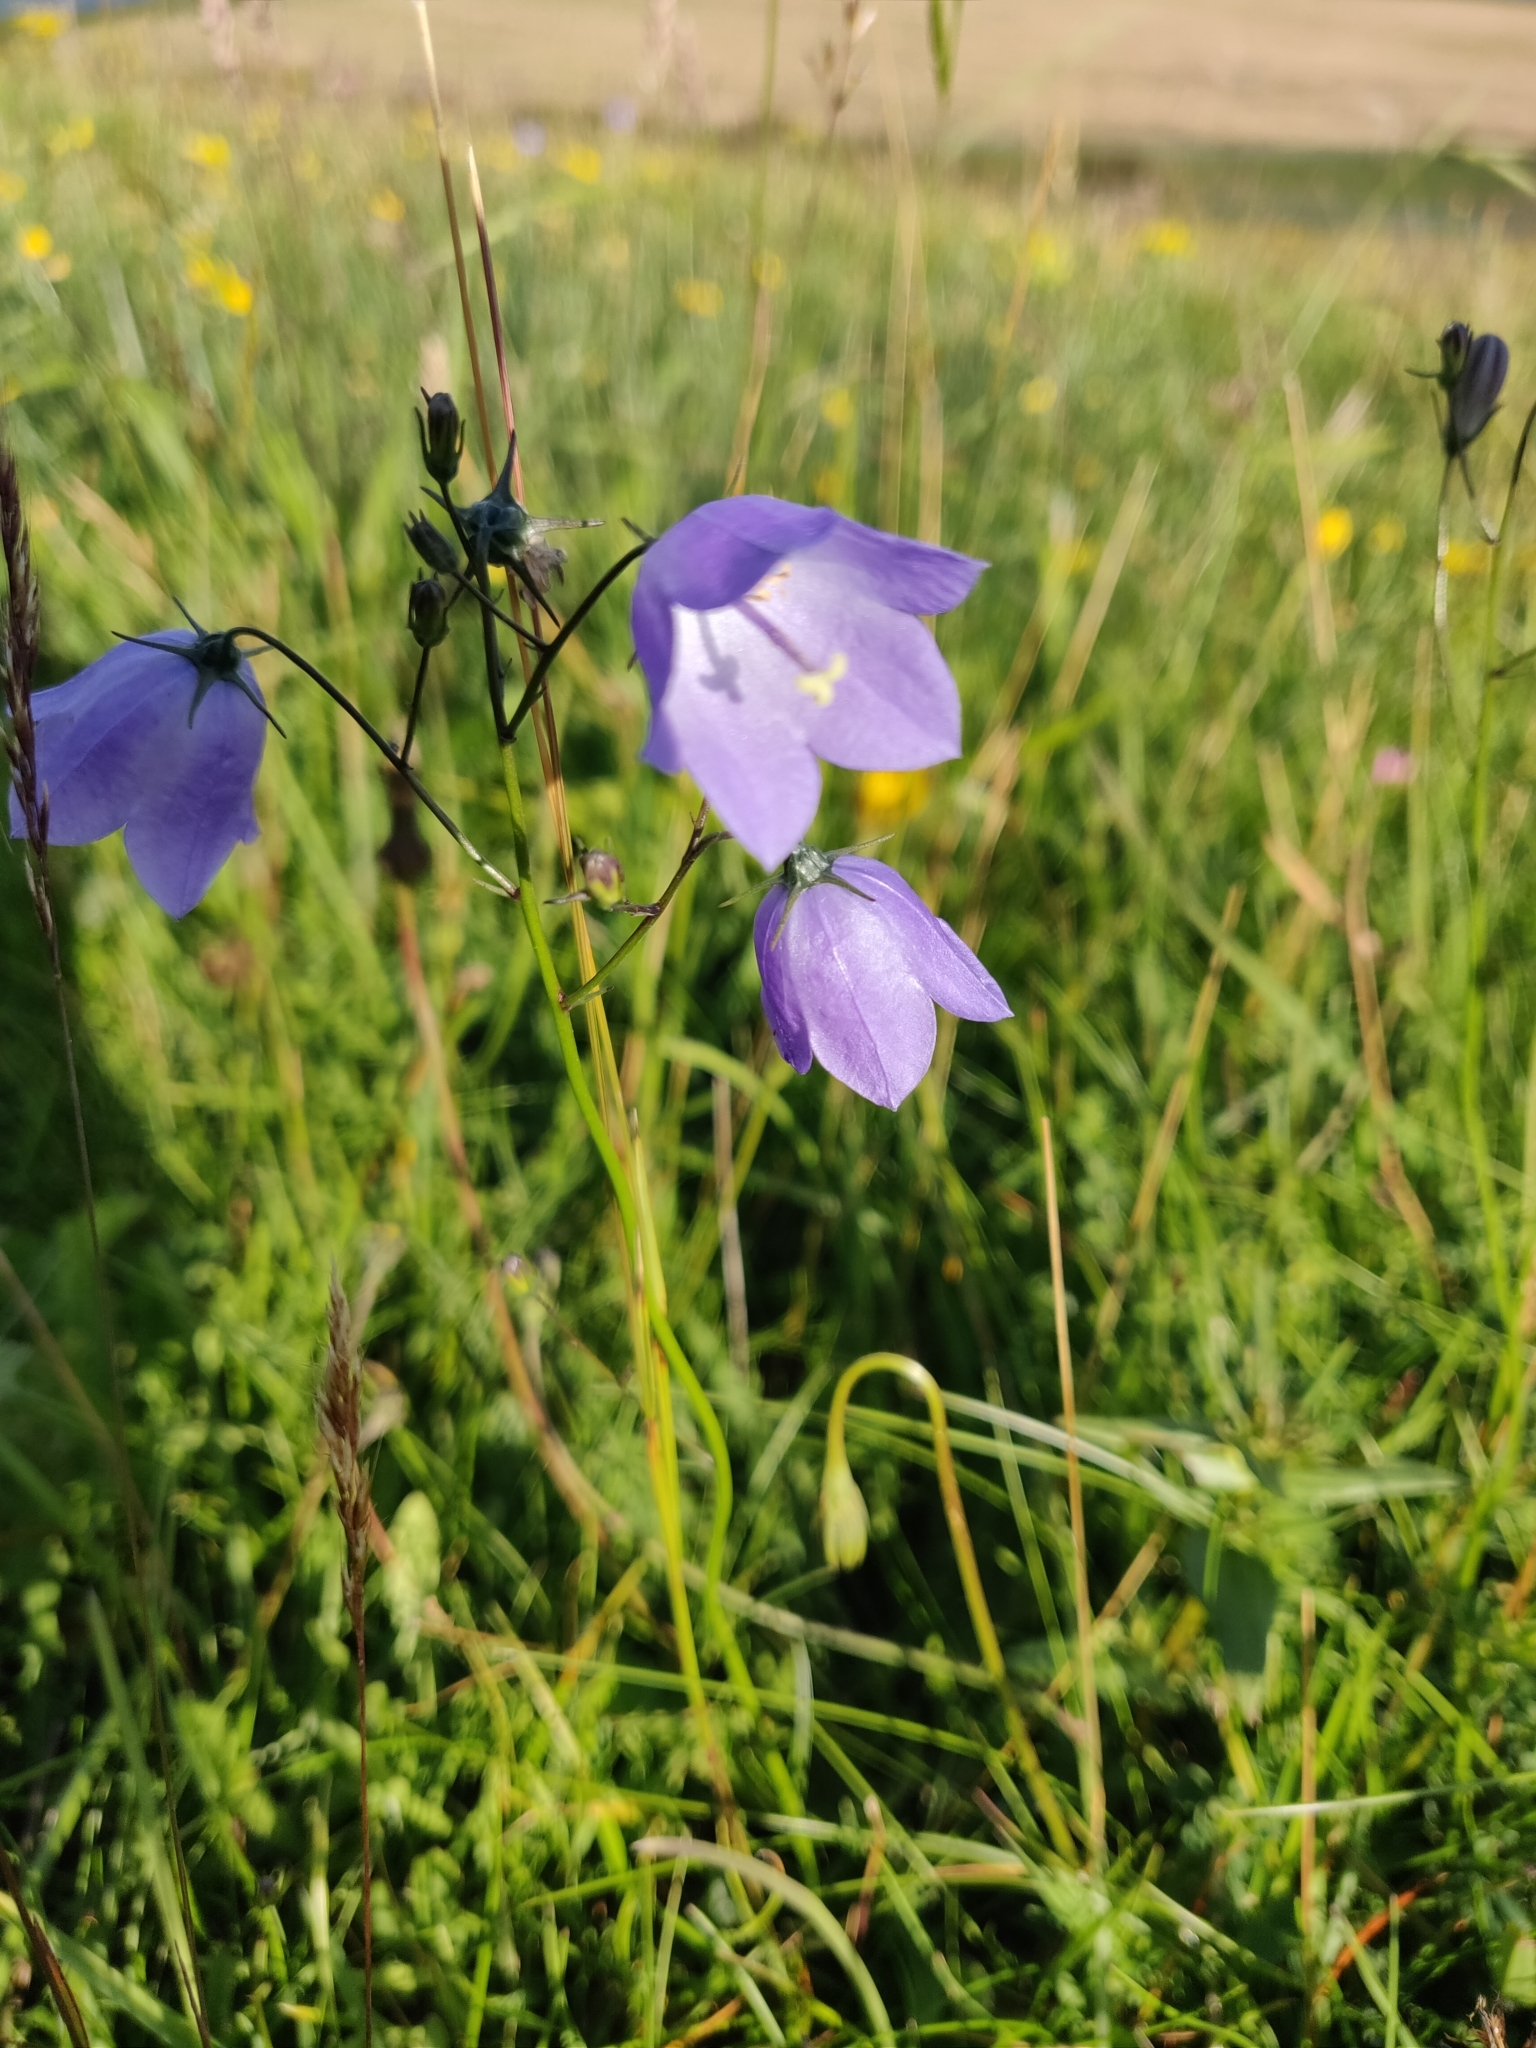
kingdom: Plantae
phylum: Tracheophyta
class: Magnoliopsida
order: Asterales
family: Campanulaceae
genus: Campanula
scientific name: Campanula rotundifolia
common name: Harebell
